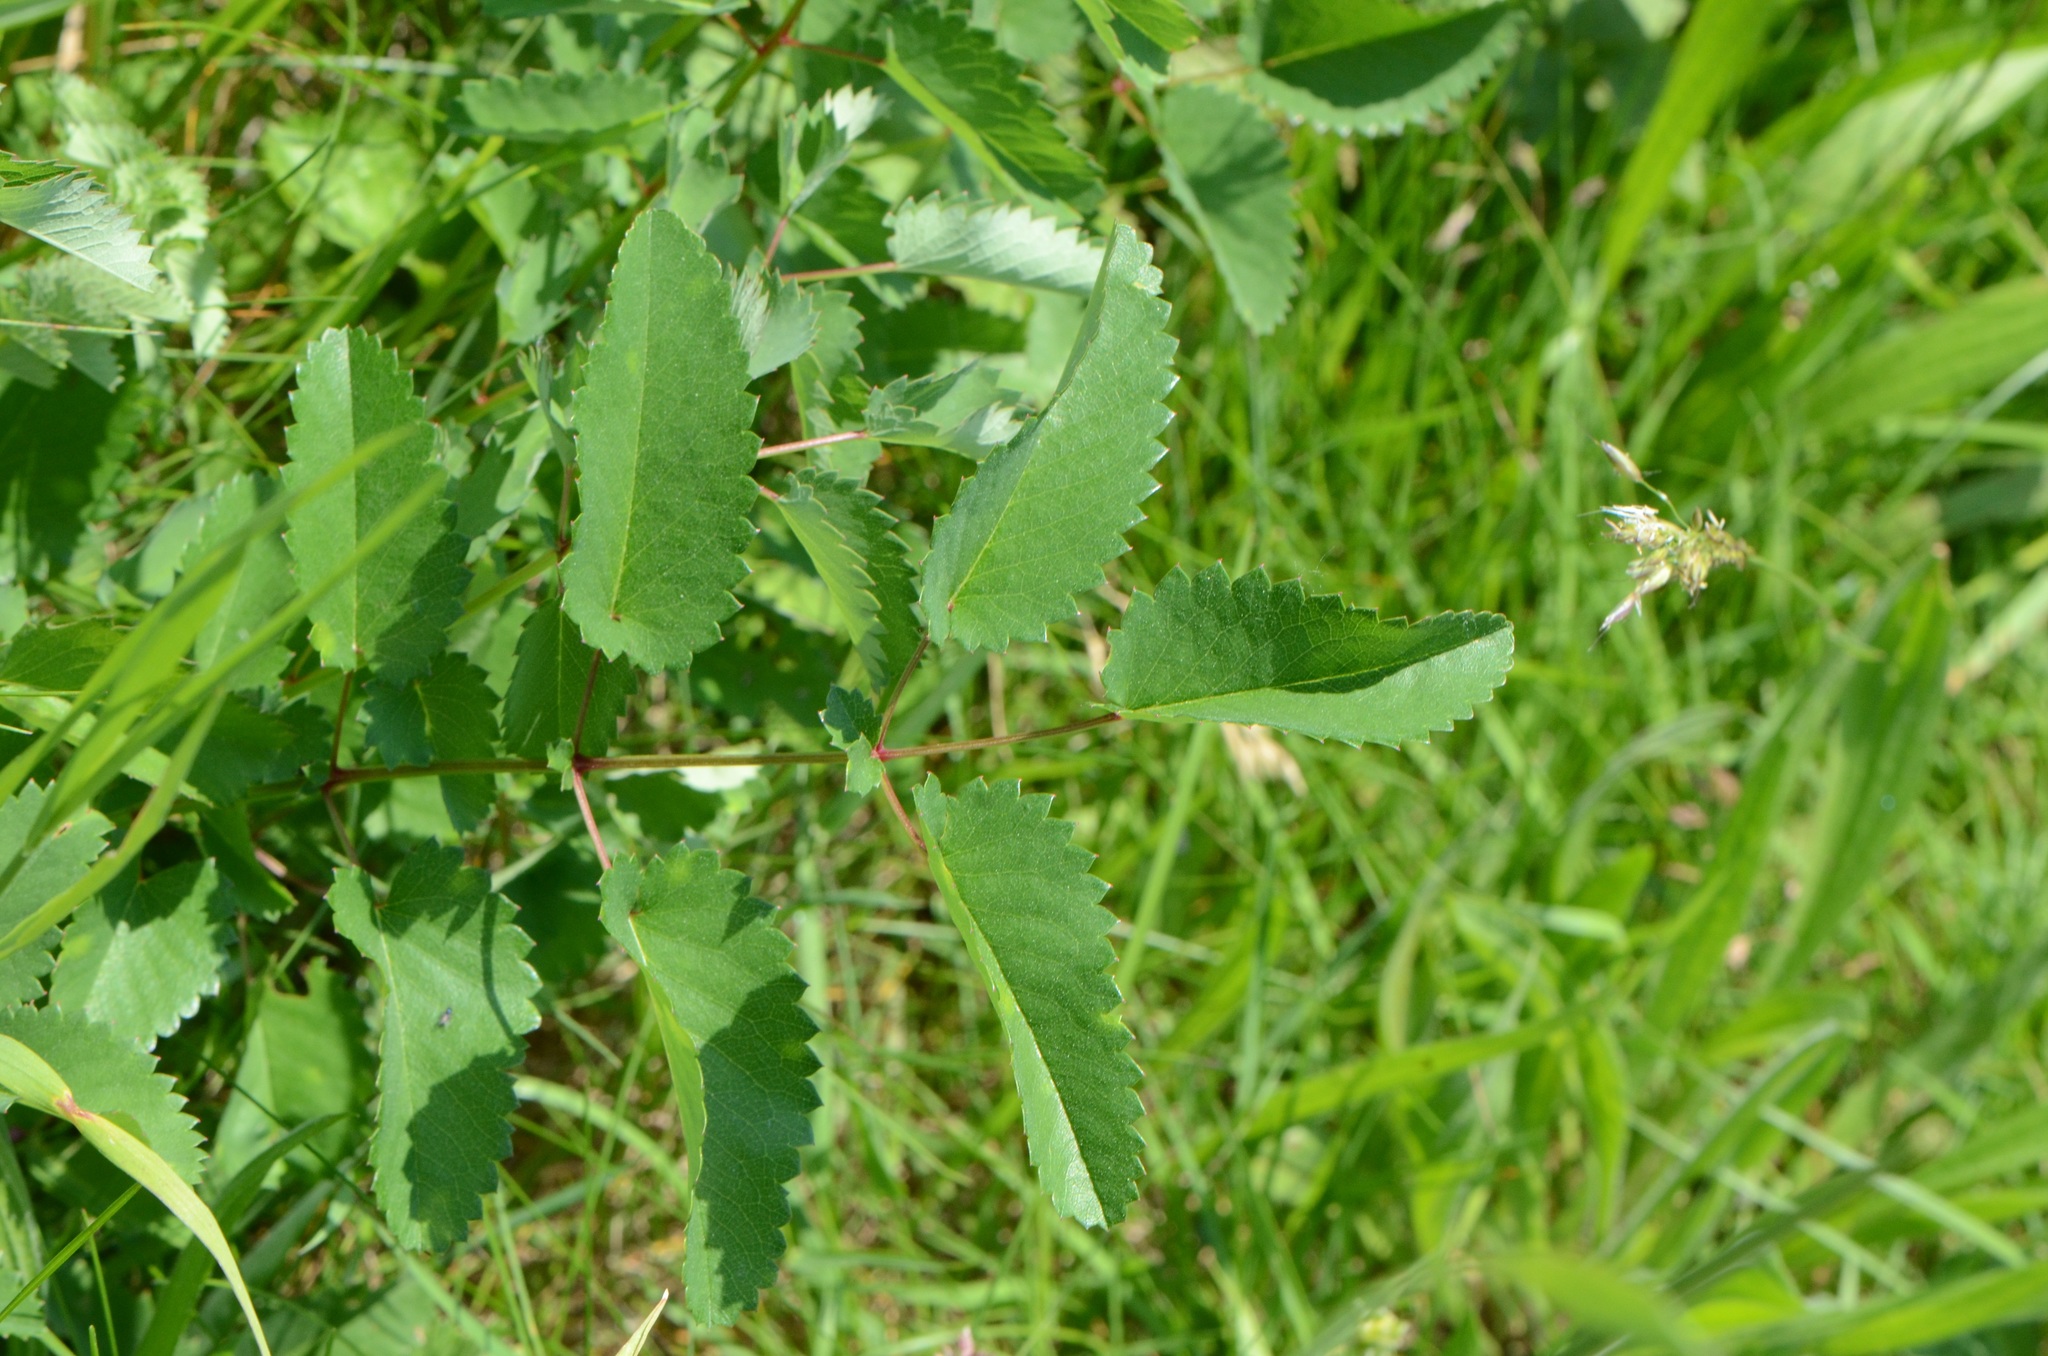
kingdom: Plantae
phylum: Tracheophyta
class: Magnoliopsida
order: Rosales
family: Rosaceae
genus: Sanguisorba
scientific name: Sanguisorba officinalis
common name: Great burnet
